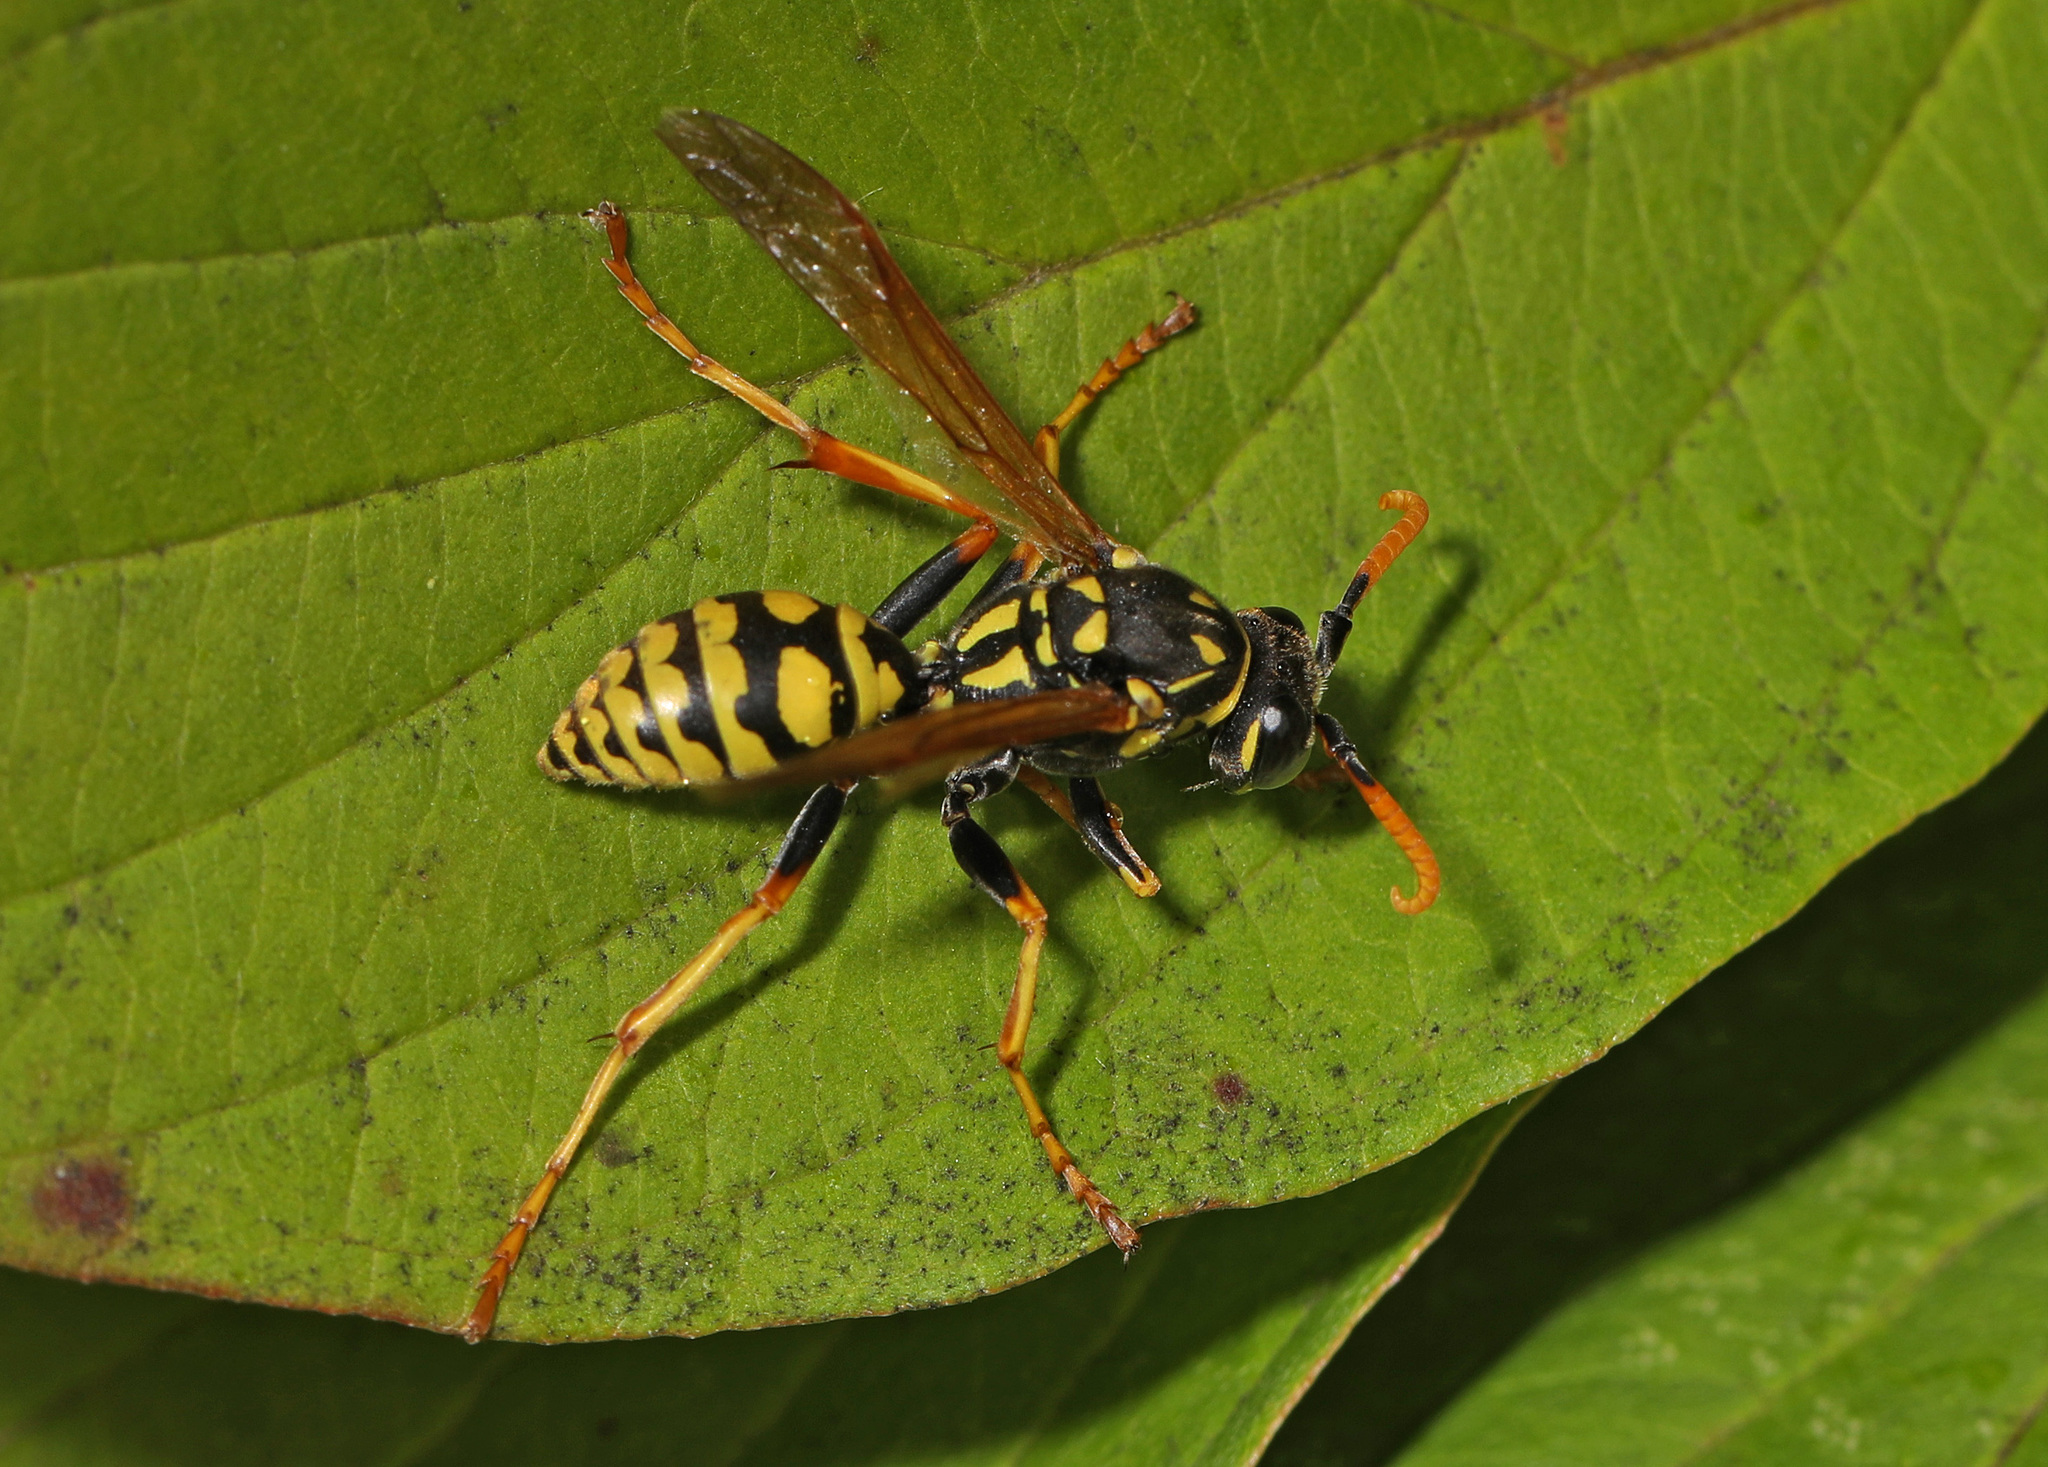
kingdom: Animalia
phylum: Arthropoda
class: Insecta
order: Hymenoptera
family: Eumenidae
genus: Polistes
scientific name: Polistes dominula
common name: Paper wasp
